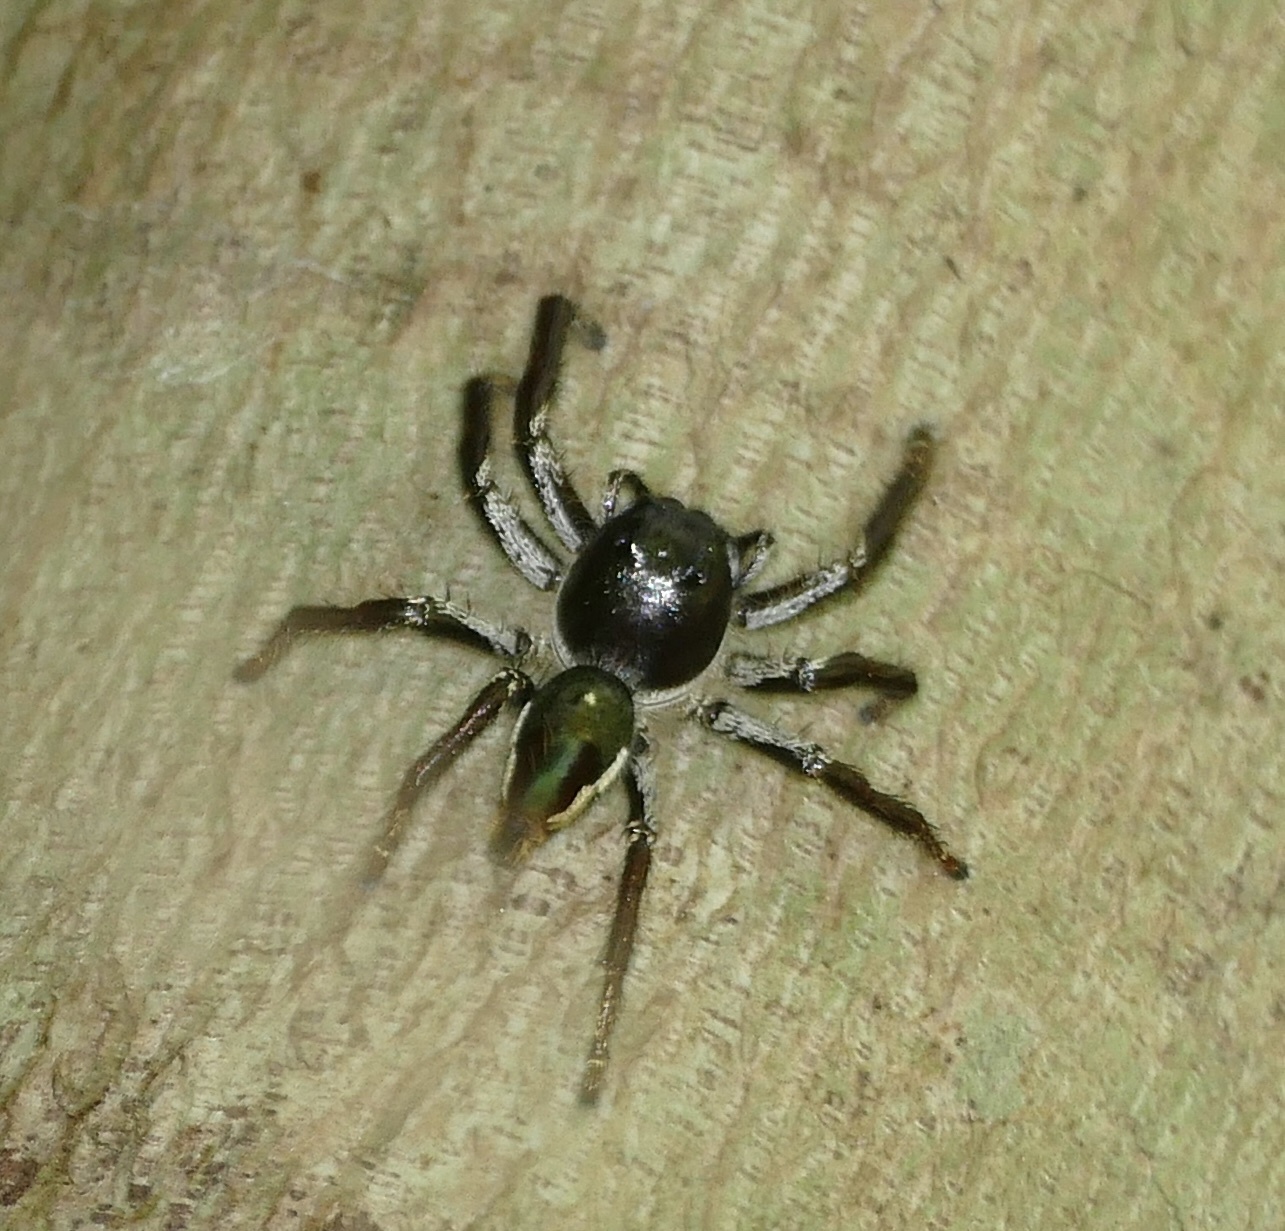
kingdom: Animalia
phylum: Arthropoda
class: Arachnida
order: Araneae
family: Salticidae
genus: Hyllus
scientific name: Hyllus giganteus
